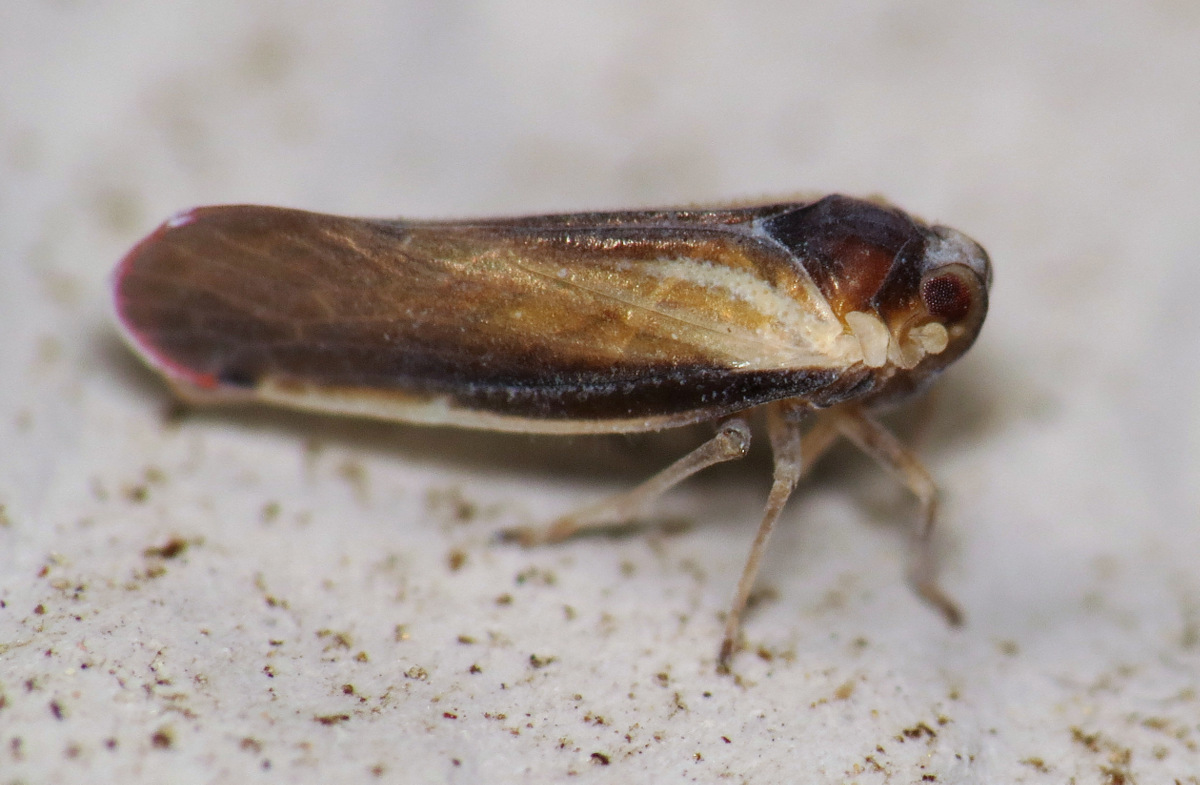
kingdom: Animalia
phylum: Arthropoda
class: Insecta
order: Hemiptera
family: Derbidae
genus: Omolicna
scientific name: Omolicna uhleri
